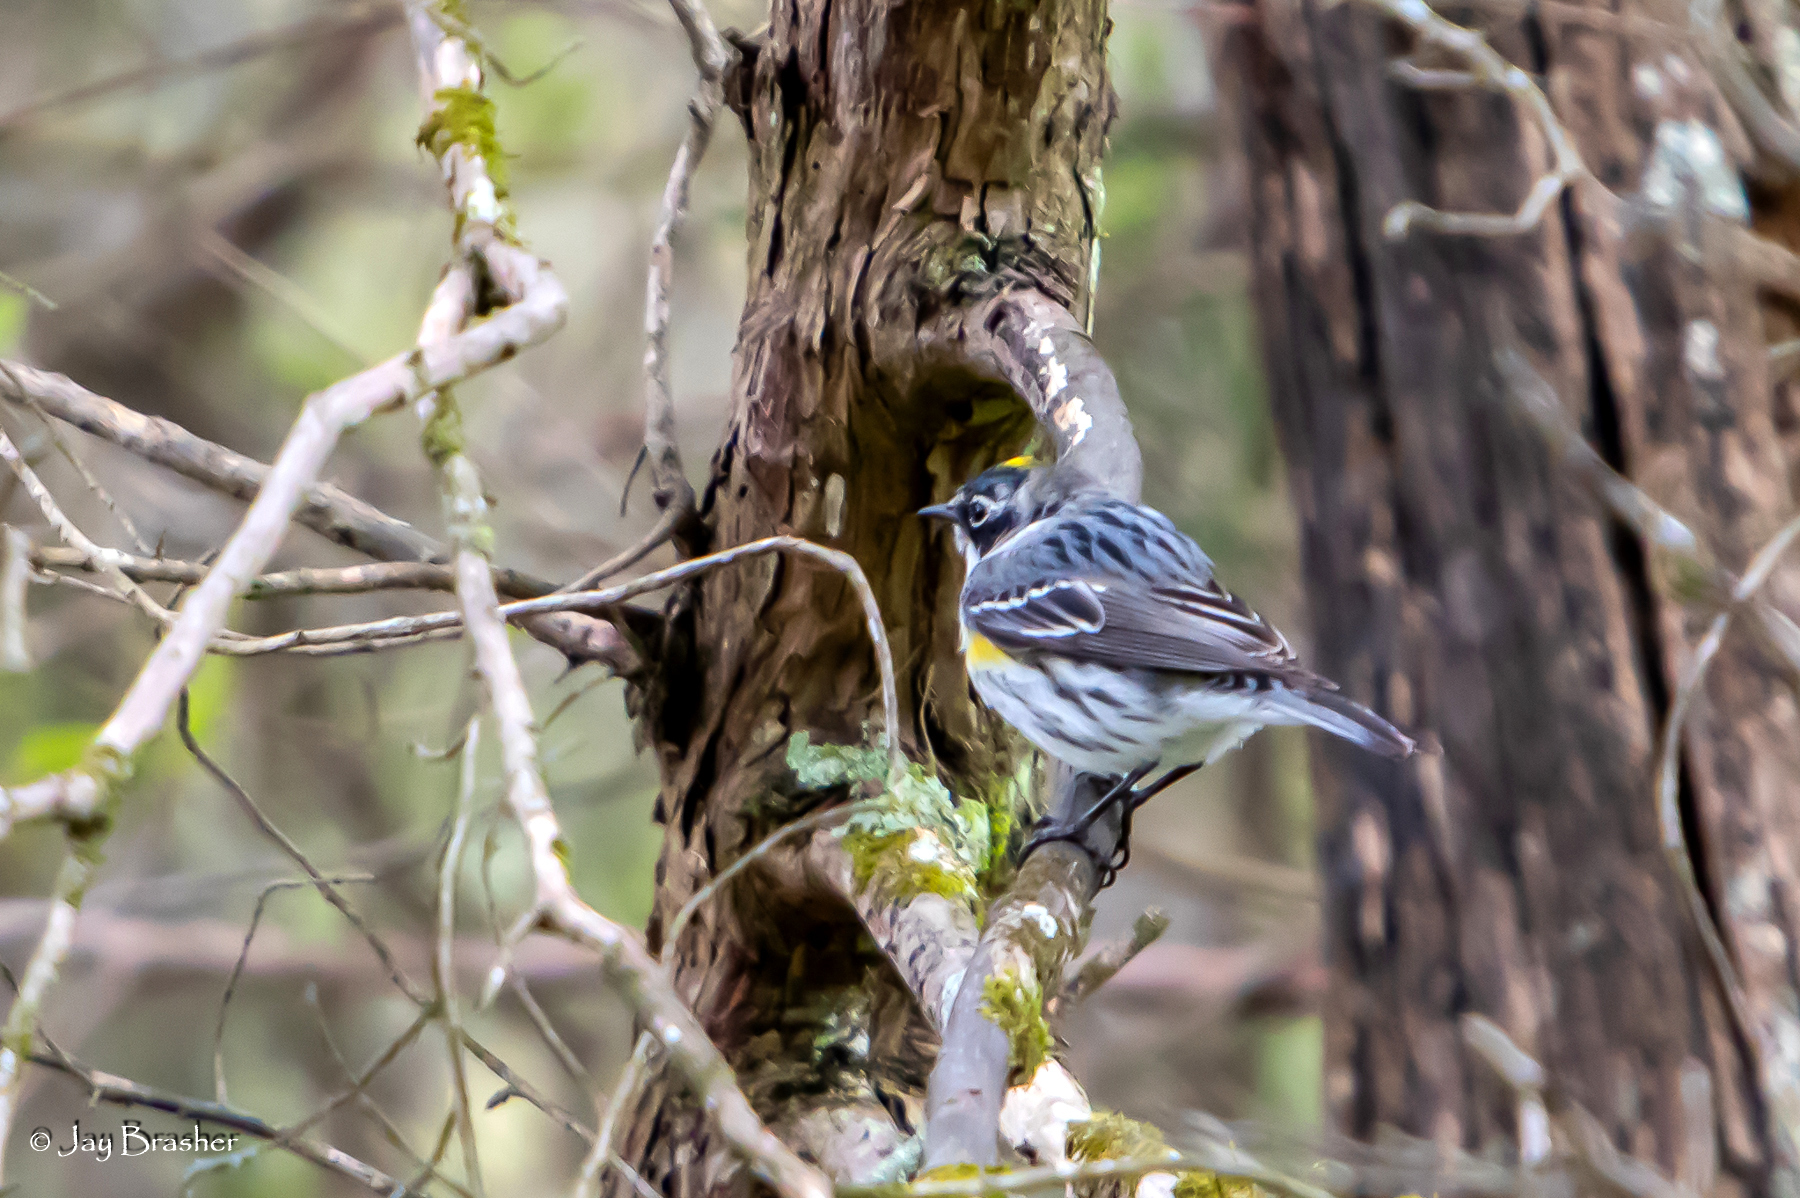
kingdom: Animalia
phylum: Chordata
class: Aves
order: Passeriformes
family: Parulidae
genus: Setophaga
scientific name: Setophaga coronata
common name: Myrtle warbler
